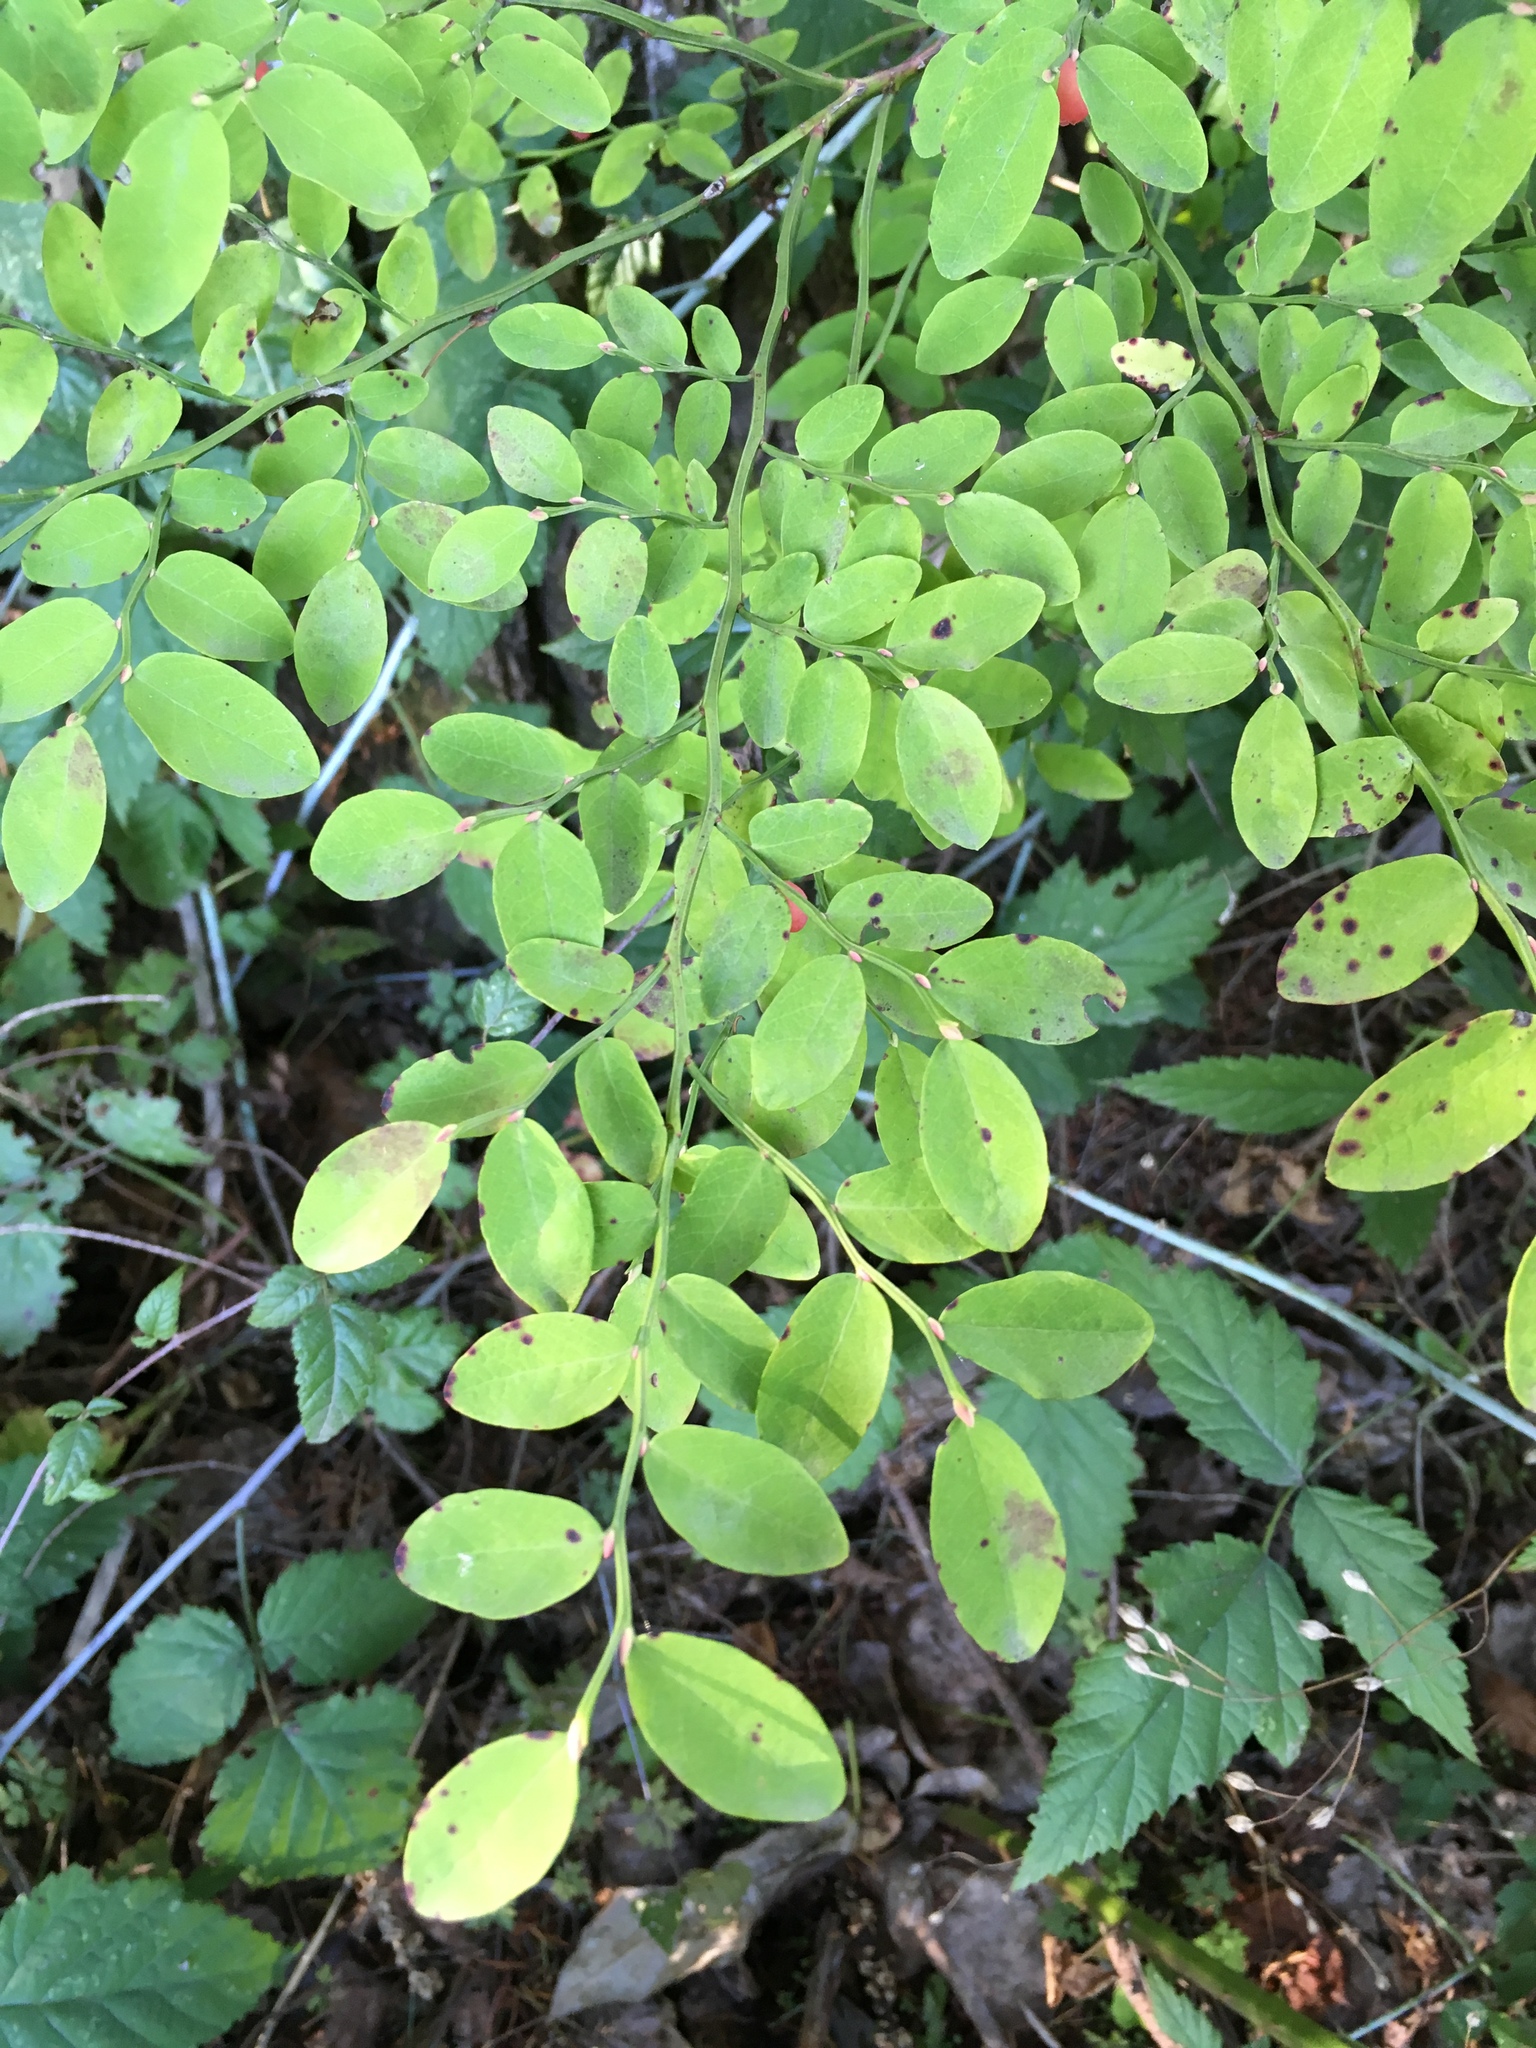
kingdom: Plantae
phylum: Tracheophyta
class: Magnoliopsida
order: Ericales
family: Ericaceae
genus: Vaccinium
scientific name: Vaccinium parvifolium
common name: Red-huckleberry
